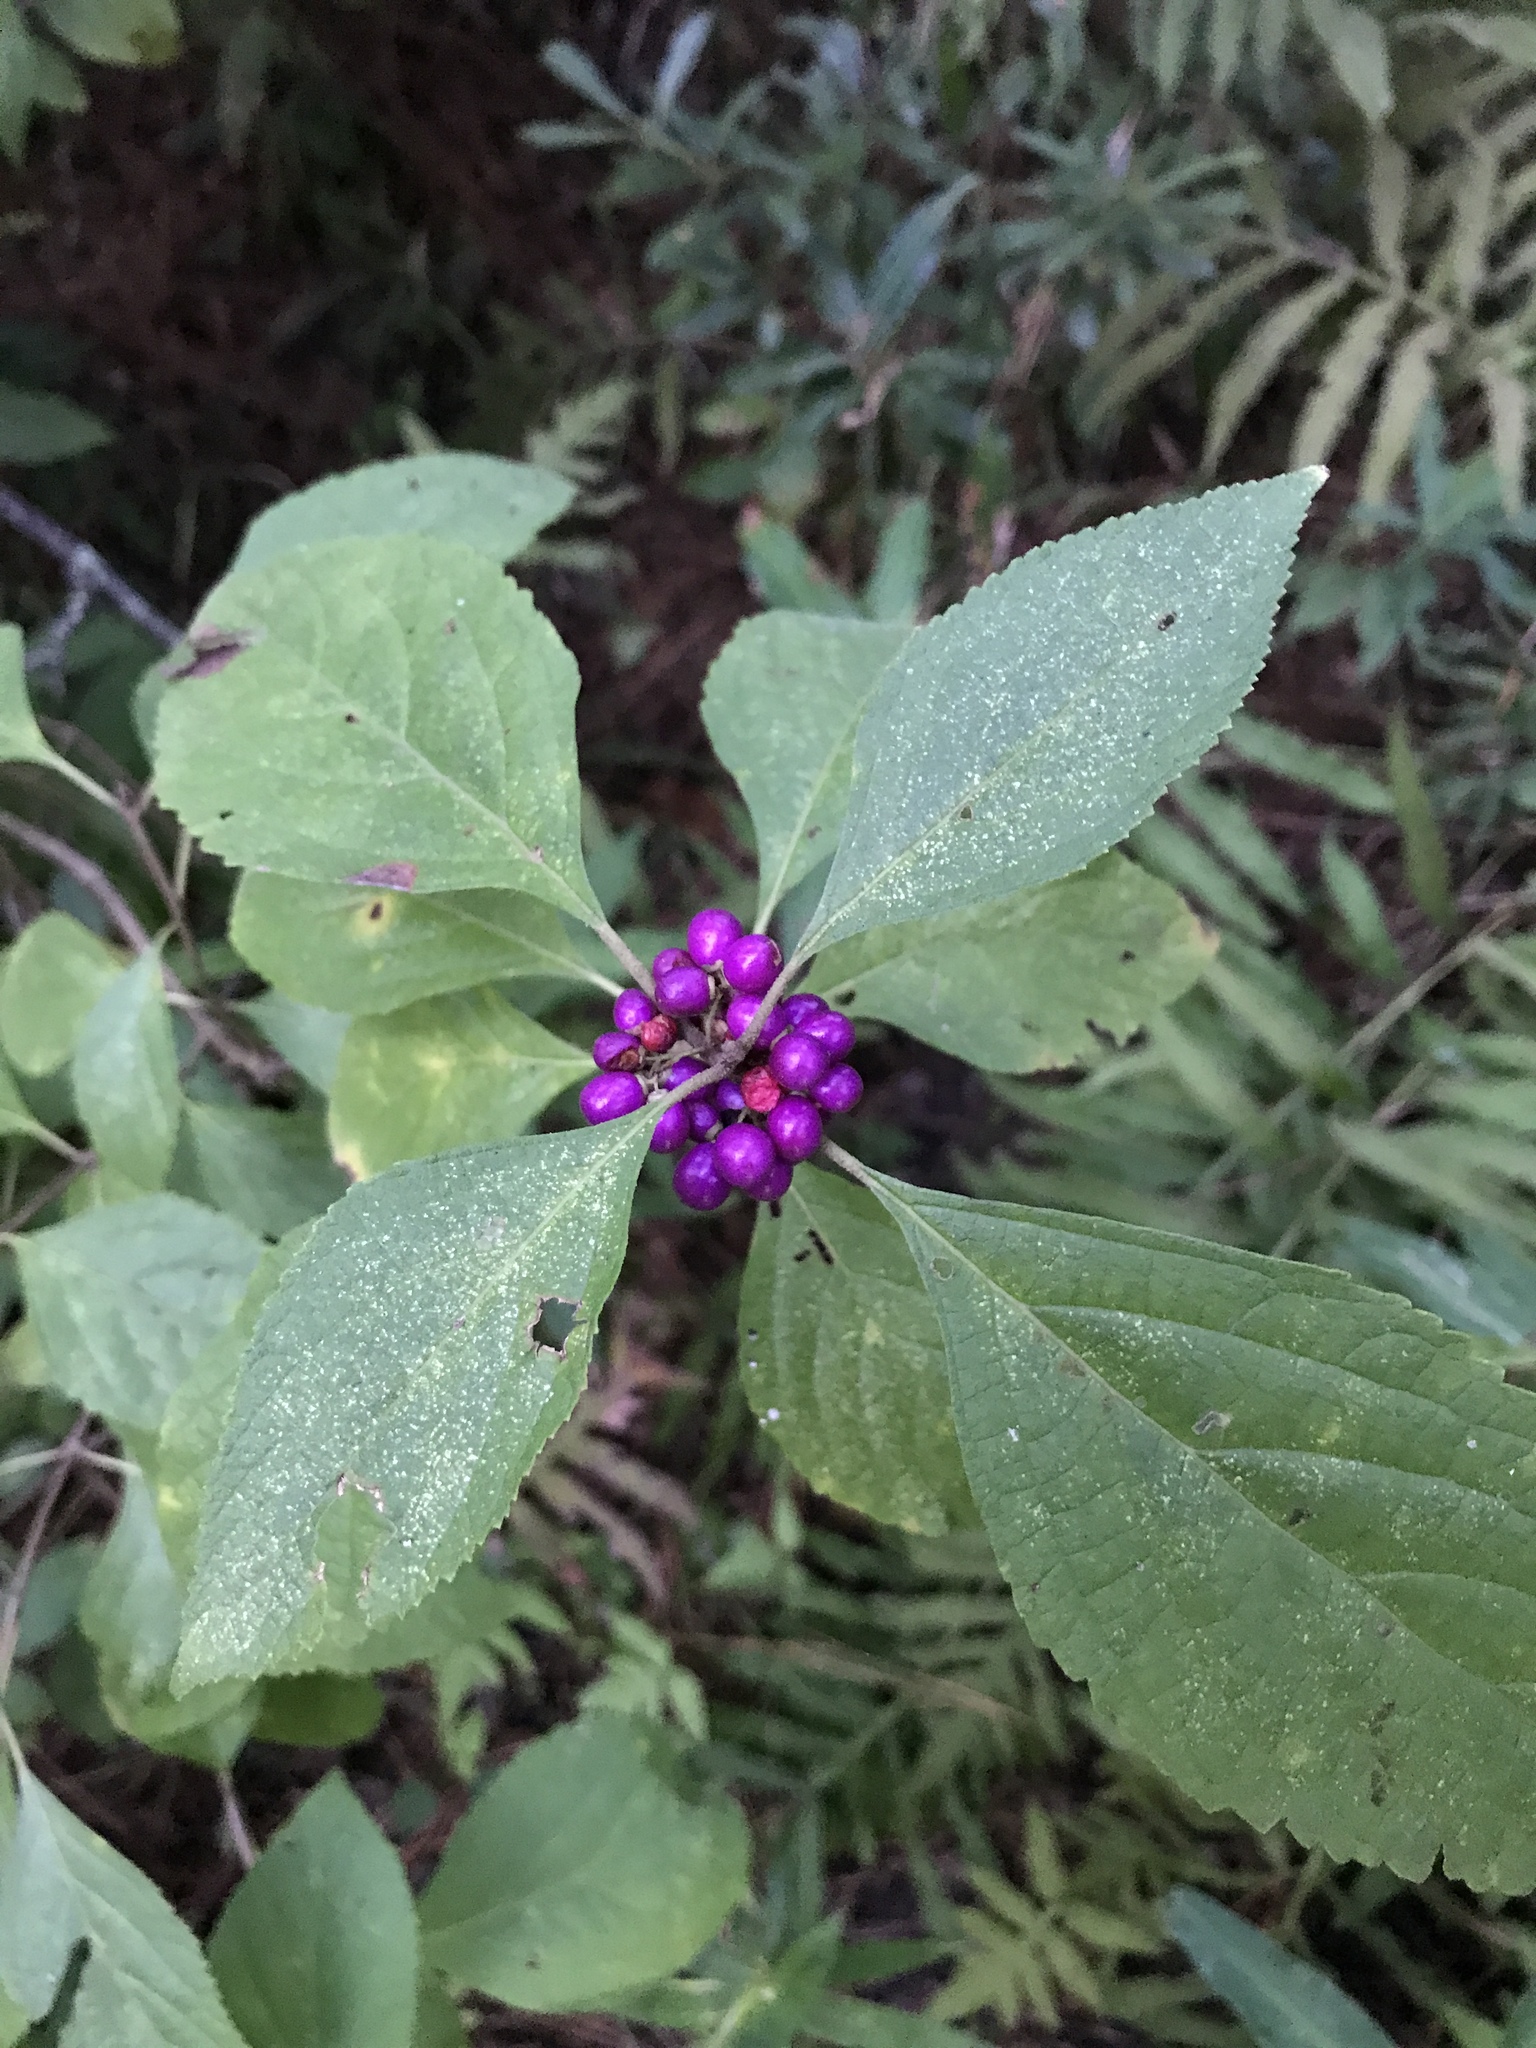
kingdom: Plantae
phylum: Tracheophyta
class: Magnoliopsida
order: Lamiales
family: Lamiaceae
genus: Callicarpa
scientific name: Callicarpa americana
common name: American beautyberry
